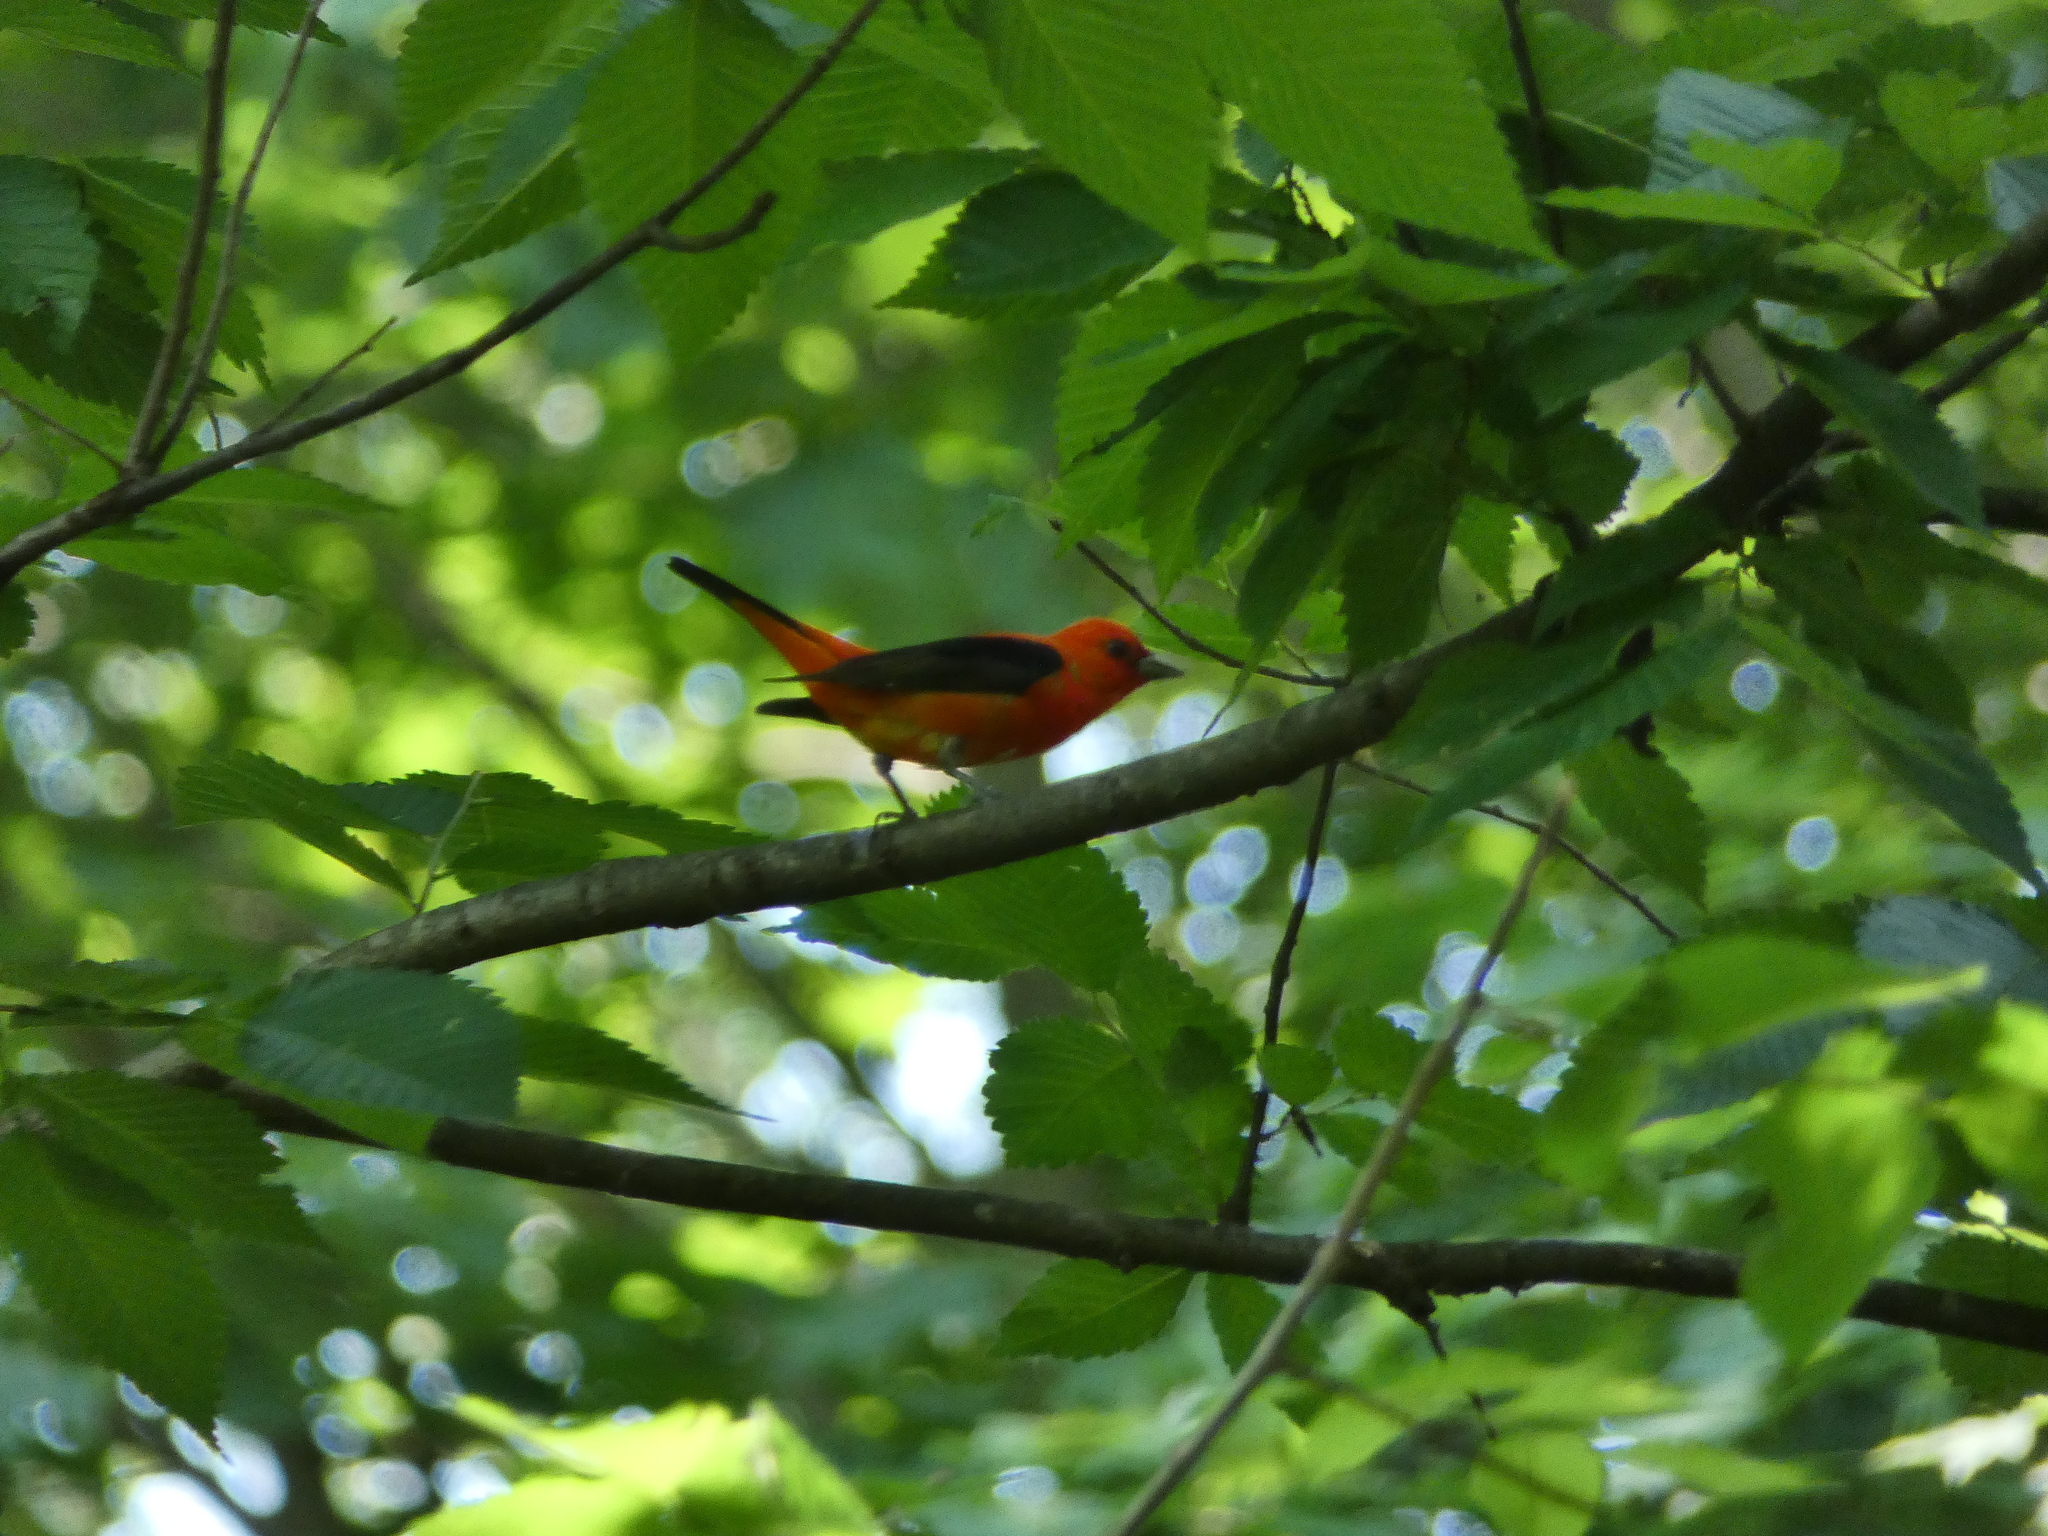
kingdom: Animalia
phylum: Chordata
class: Aves
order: Passeriformes
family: Cardinalidae
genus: Piranga
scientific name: Piranga olivacea
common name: Scarlet tanager
